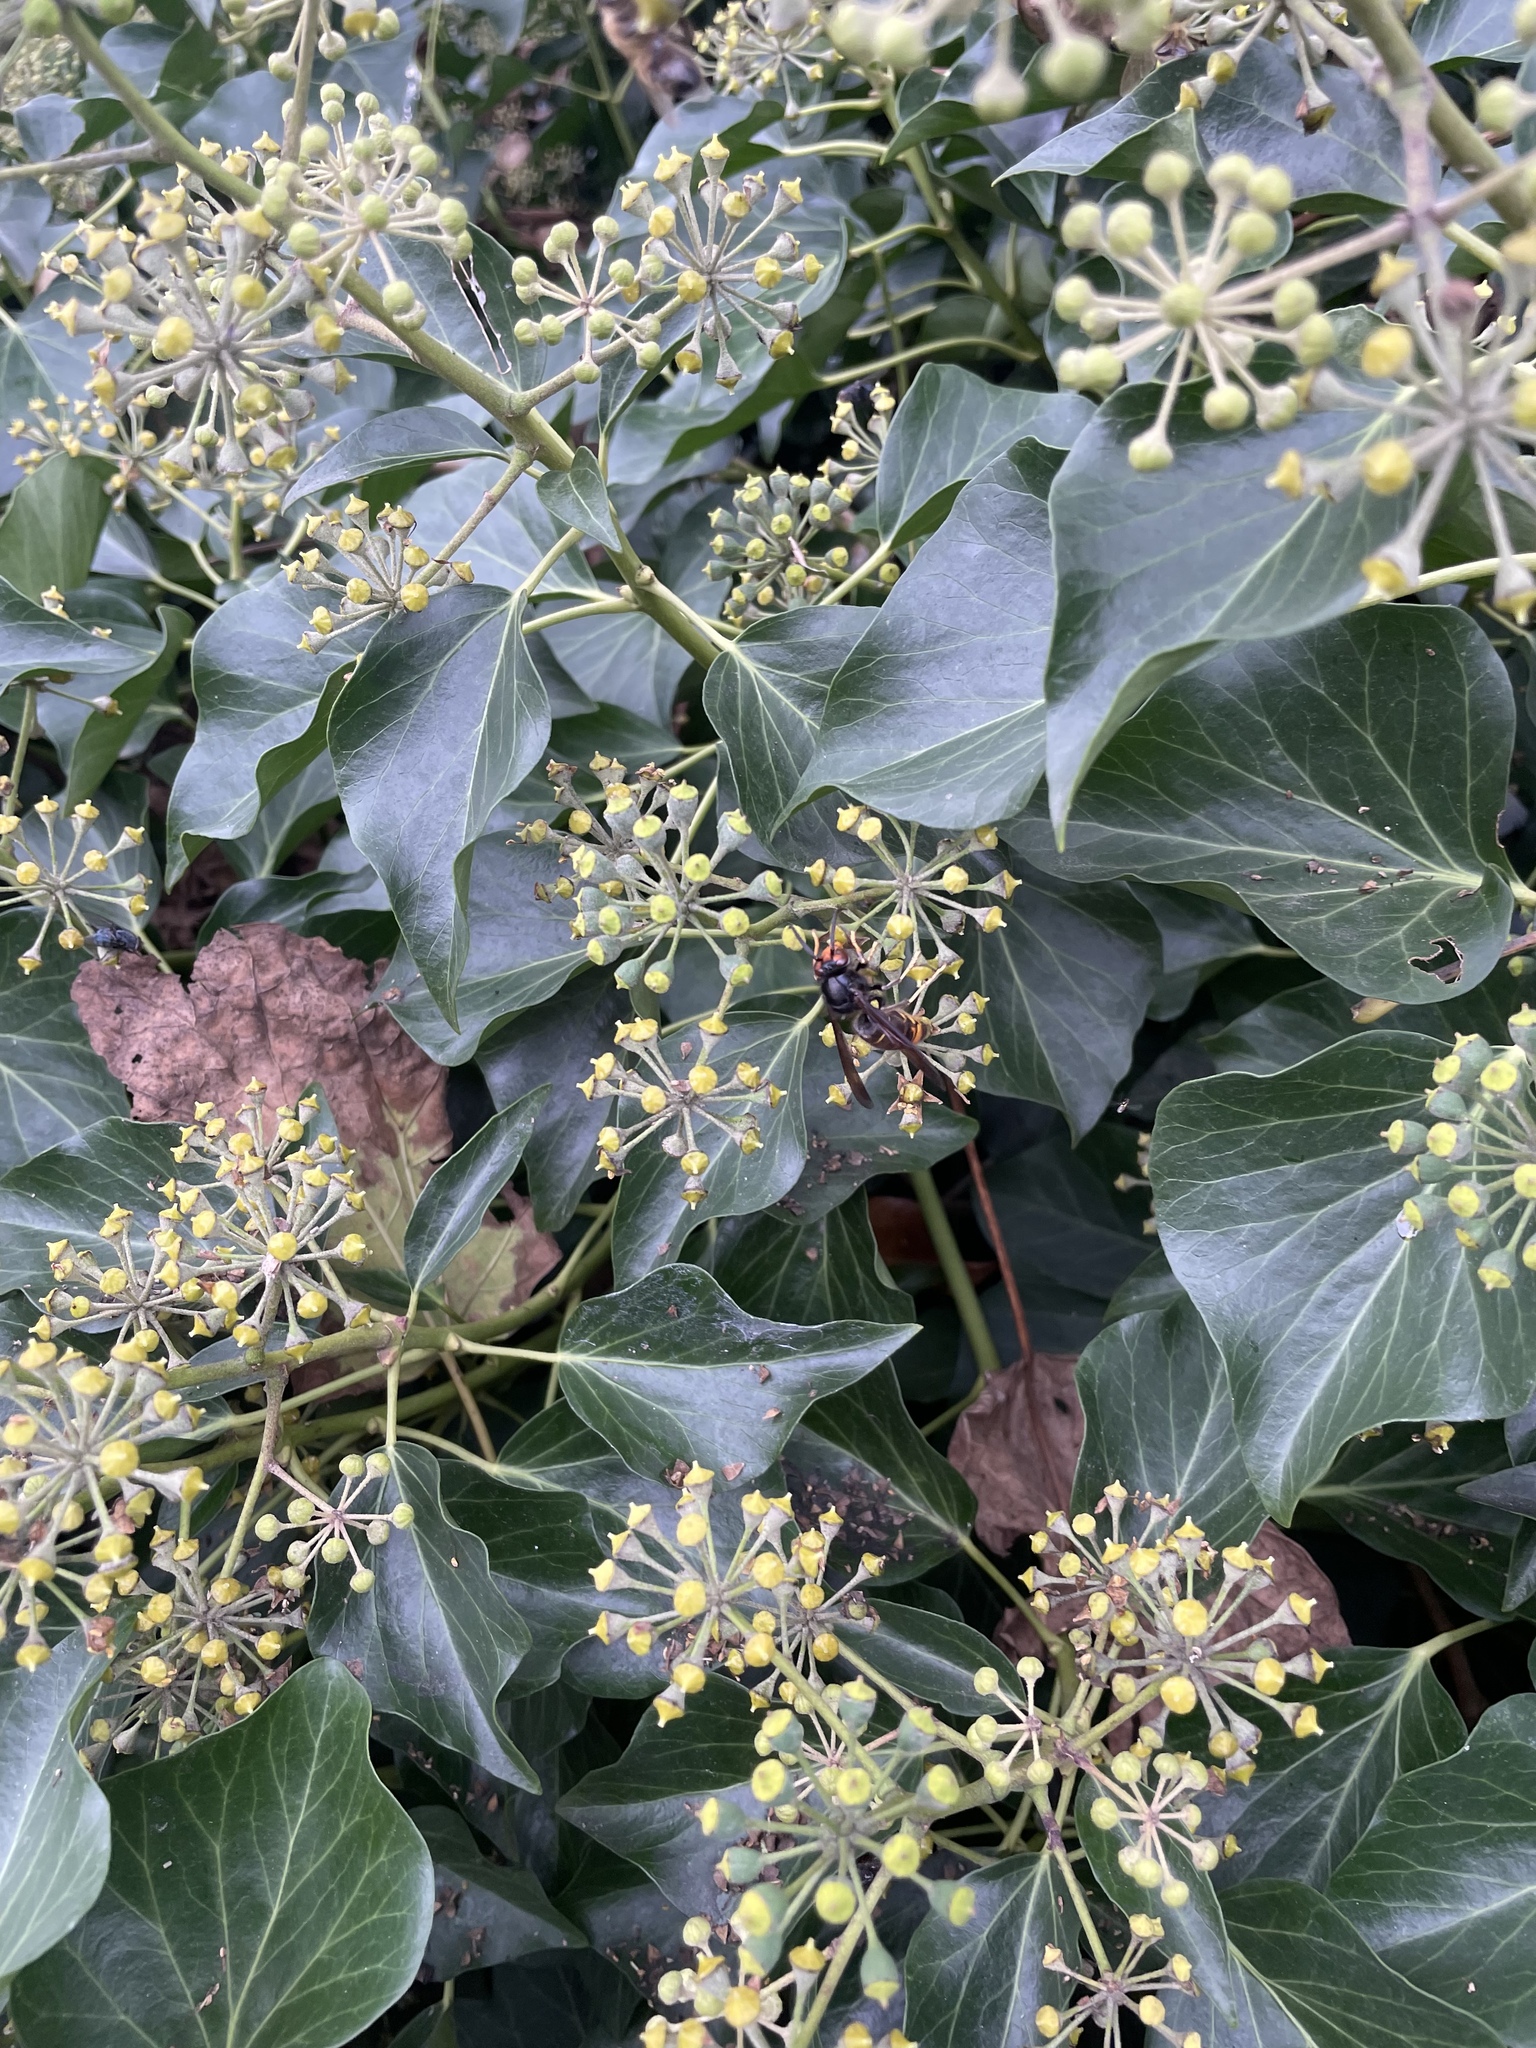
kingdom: Animalia
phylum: Arthropoda
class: Insecta
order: Hymenoptera
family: Vespidae
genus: Vespa
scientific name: Vespa velutina
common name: Asian hornet
